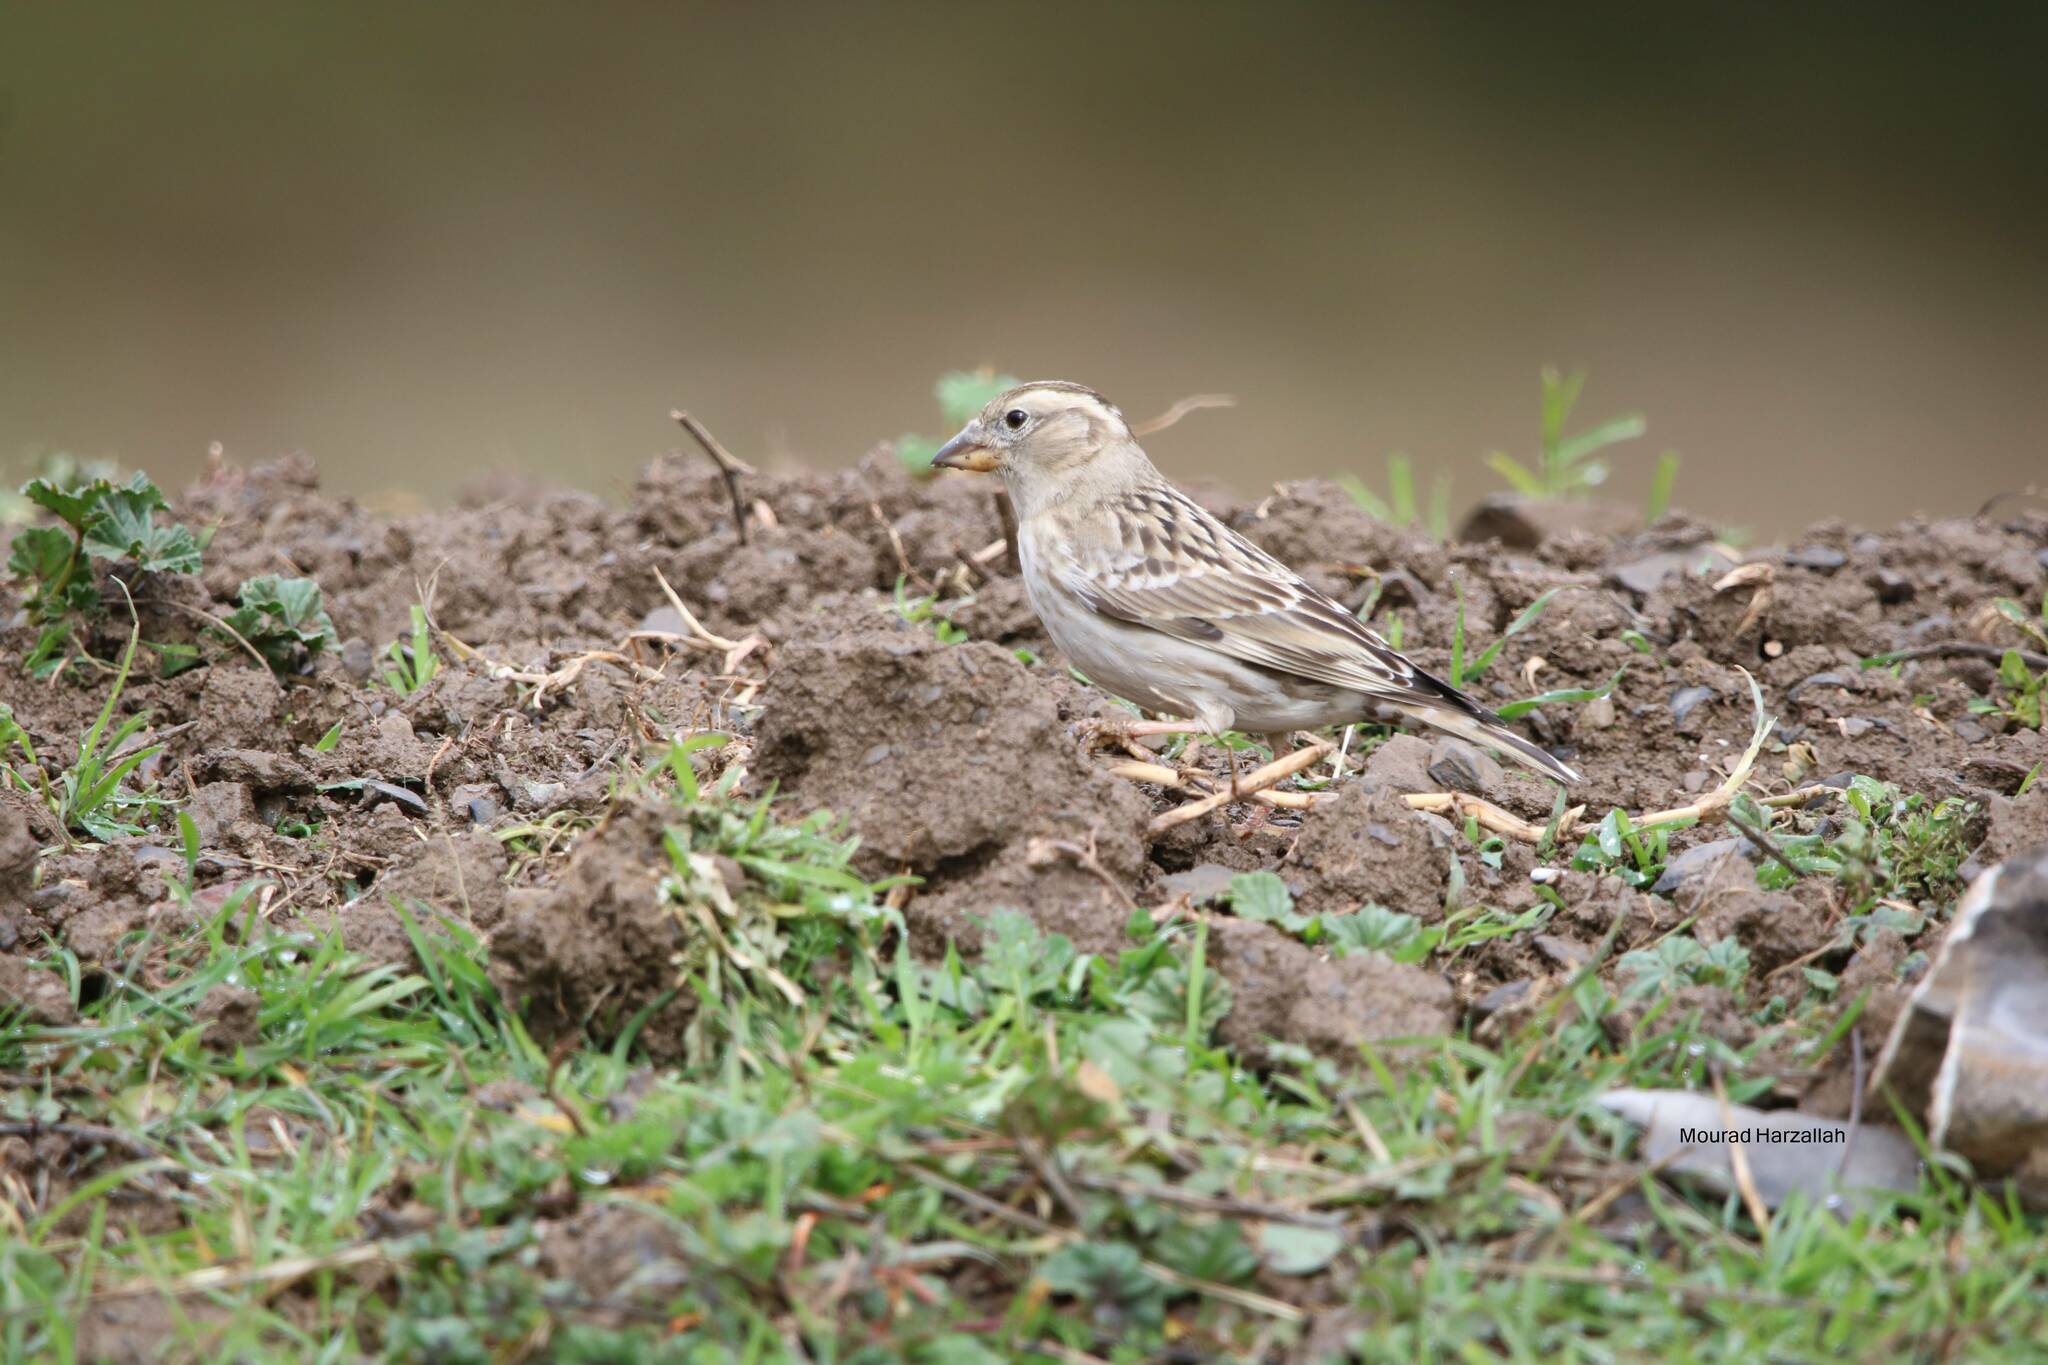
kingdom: Animalia
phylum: Chordata
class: Aves
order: Passeriformes
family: Passeridae
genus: Petronia
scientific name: Petronia petronia
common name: Rock sparrow
